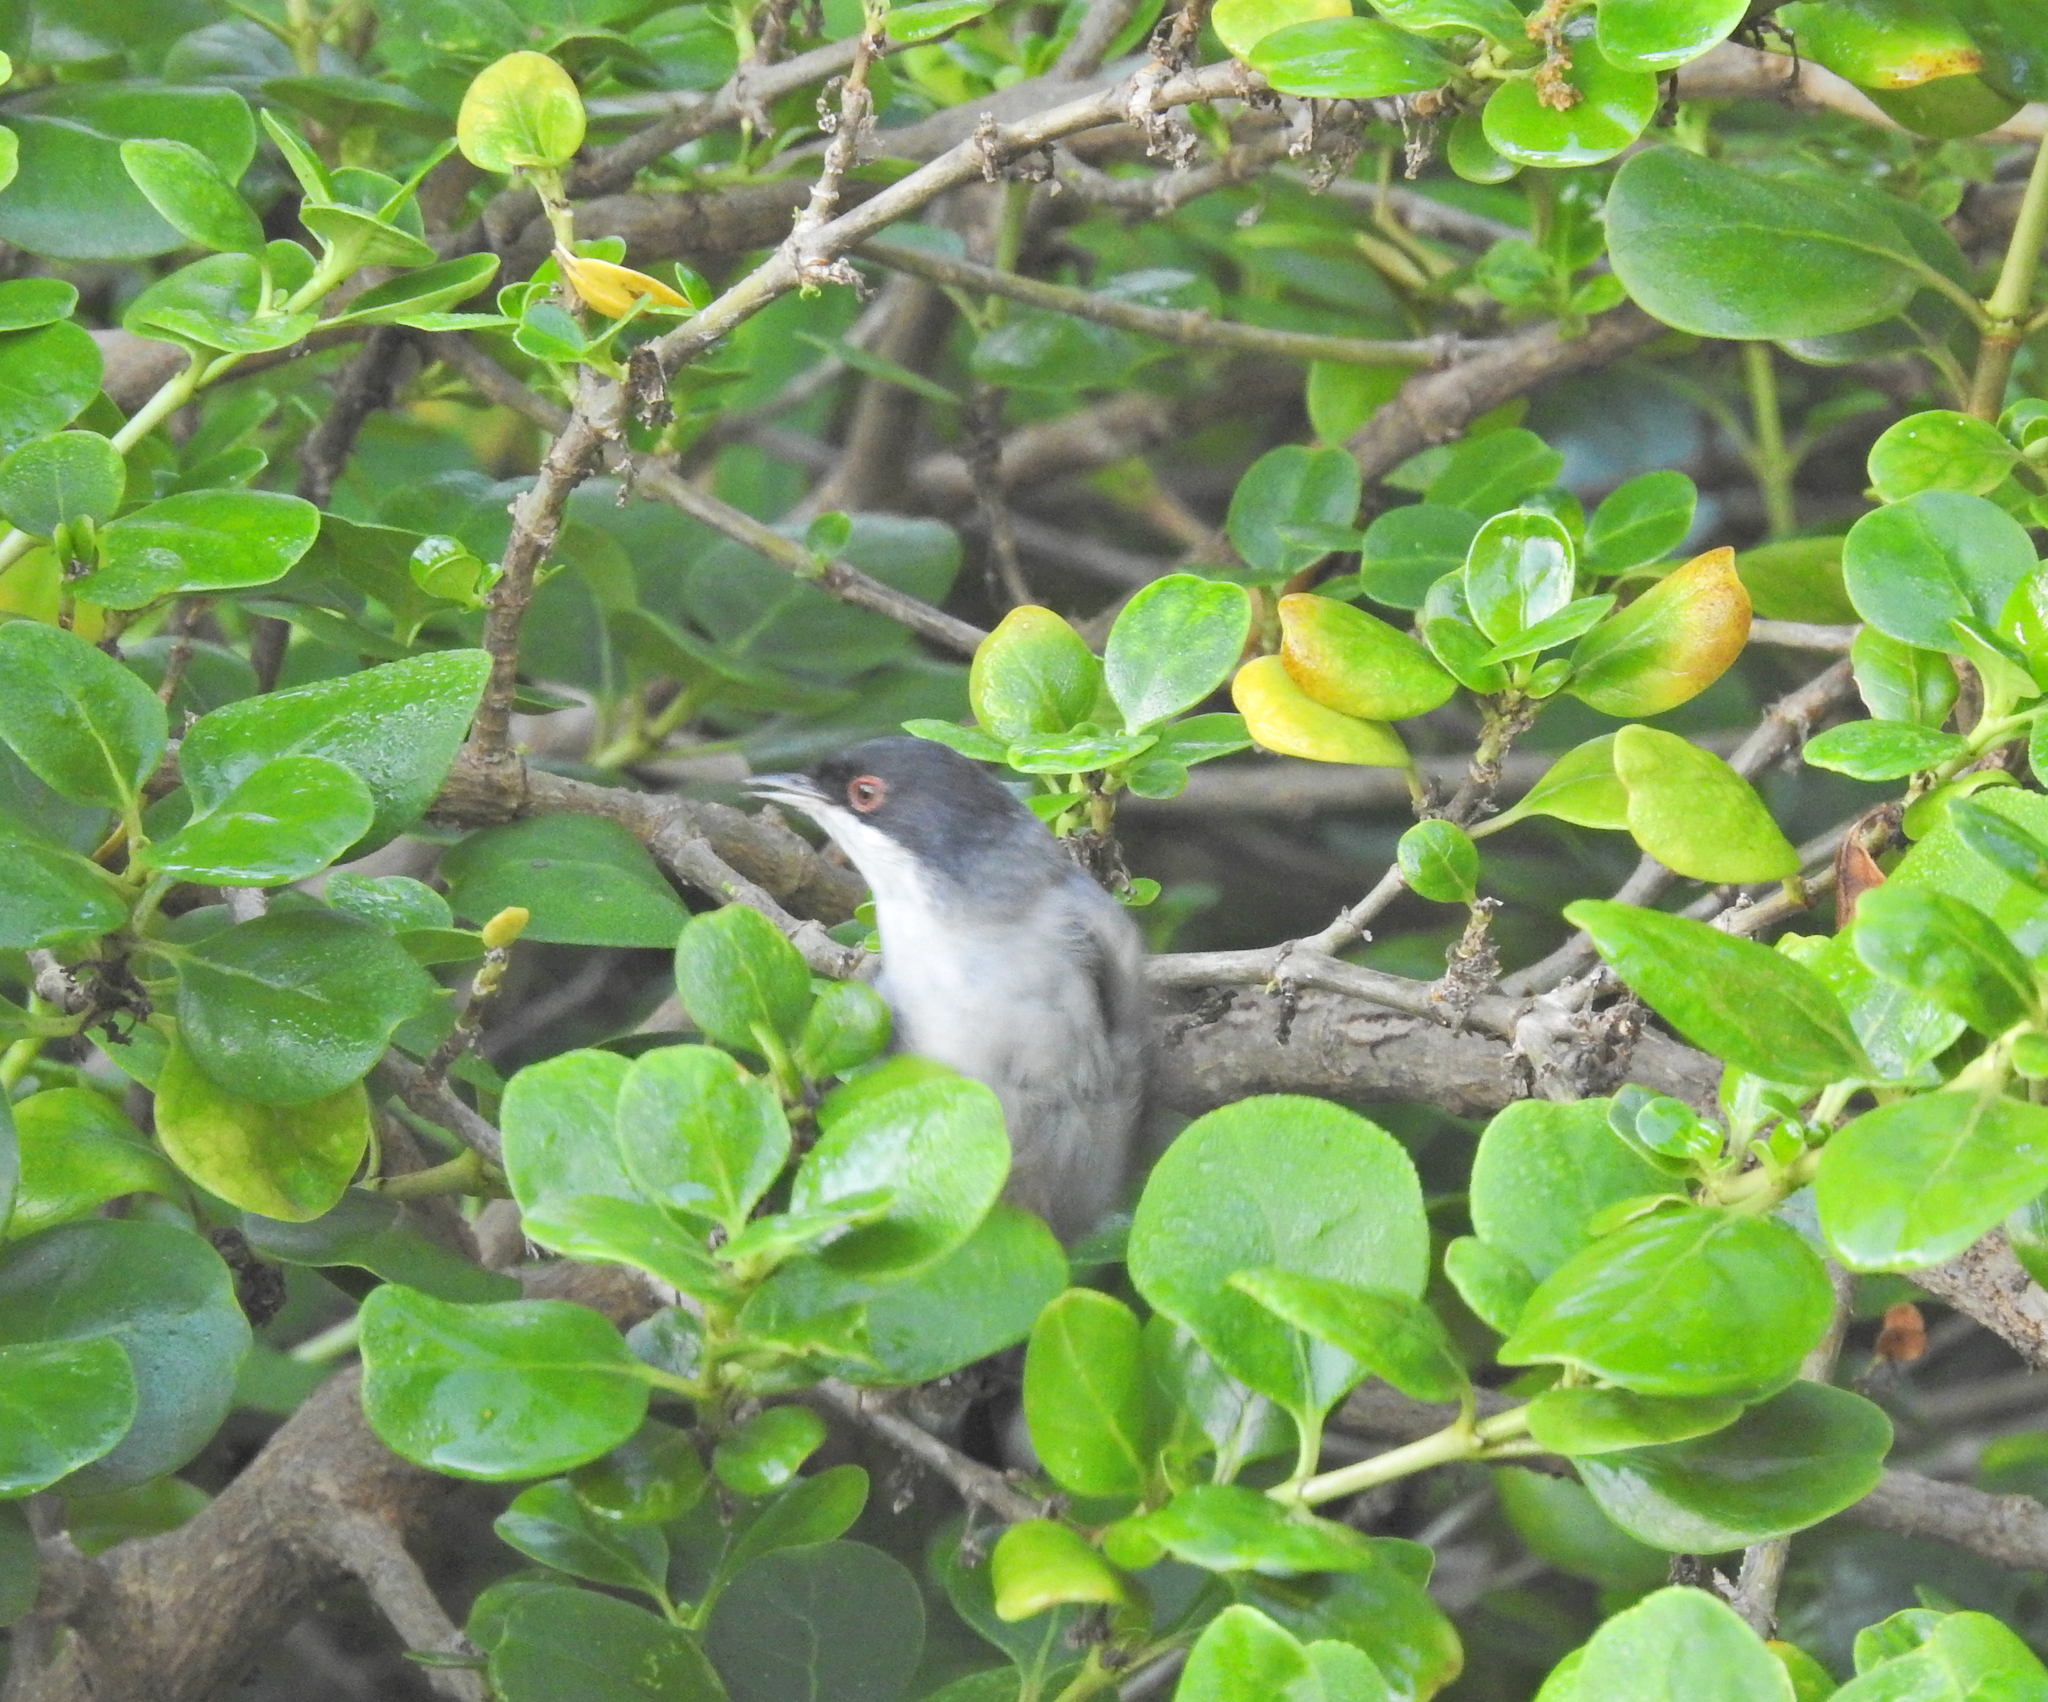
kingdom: Animalia
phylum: Chordata
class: Aves
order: Passeriformes
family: Sylviidae
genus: Curruca
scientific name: Curruca melanocephala
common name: Sardinian warbler
